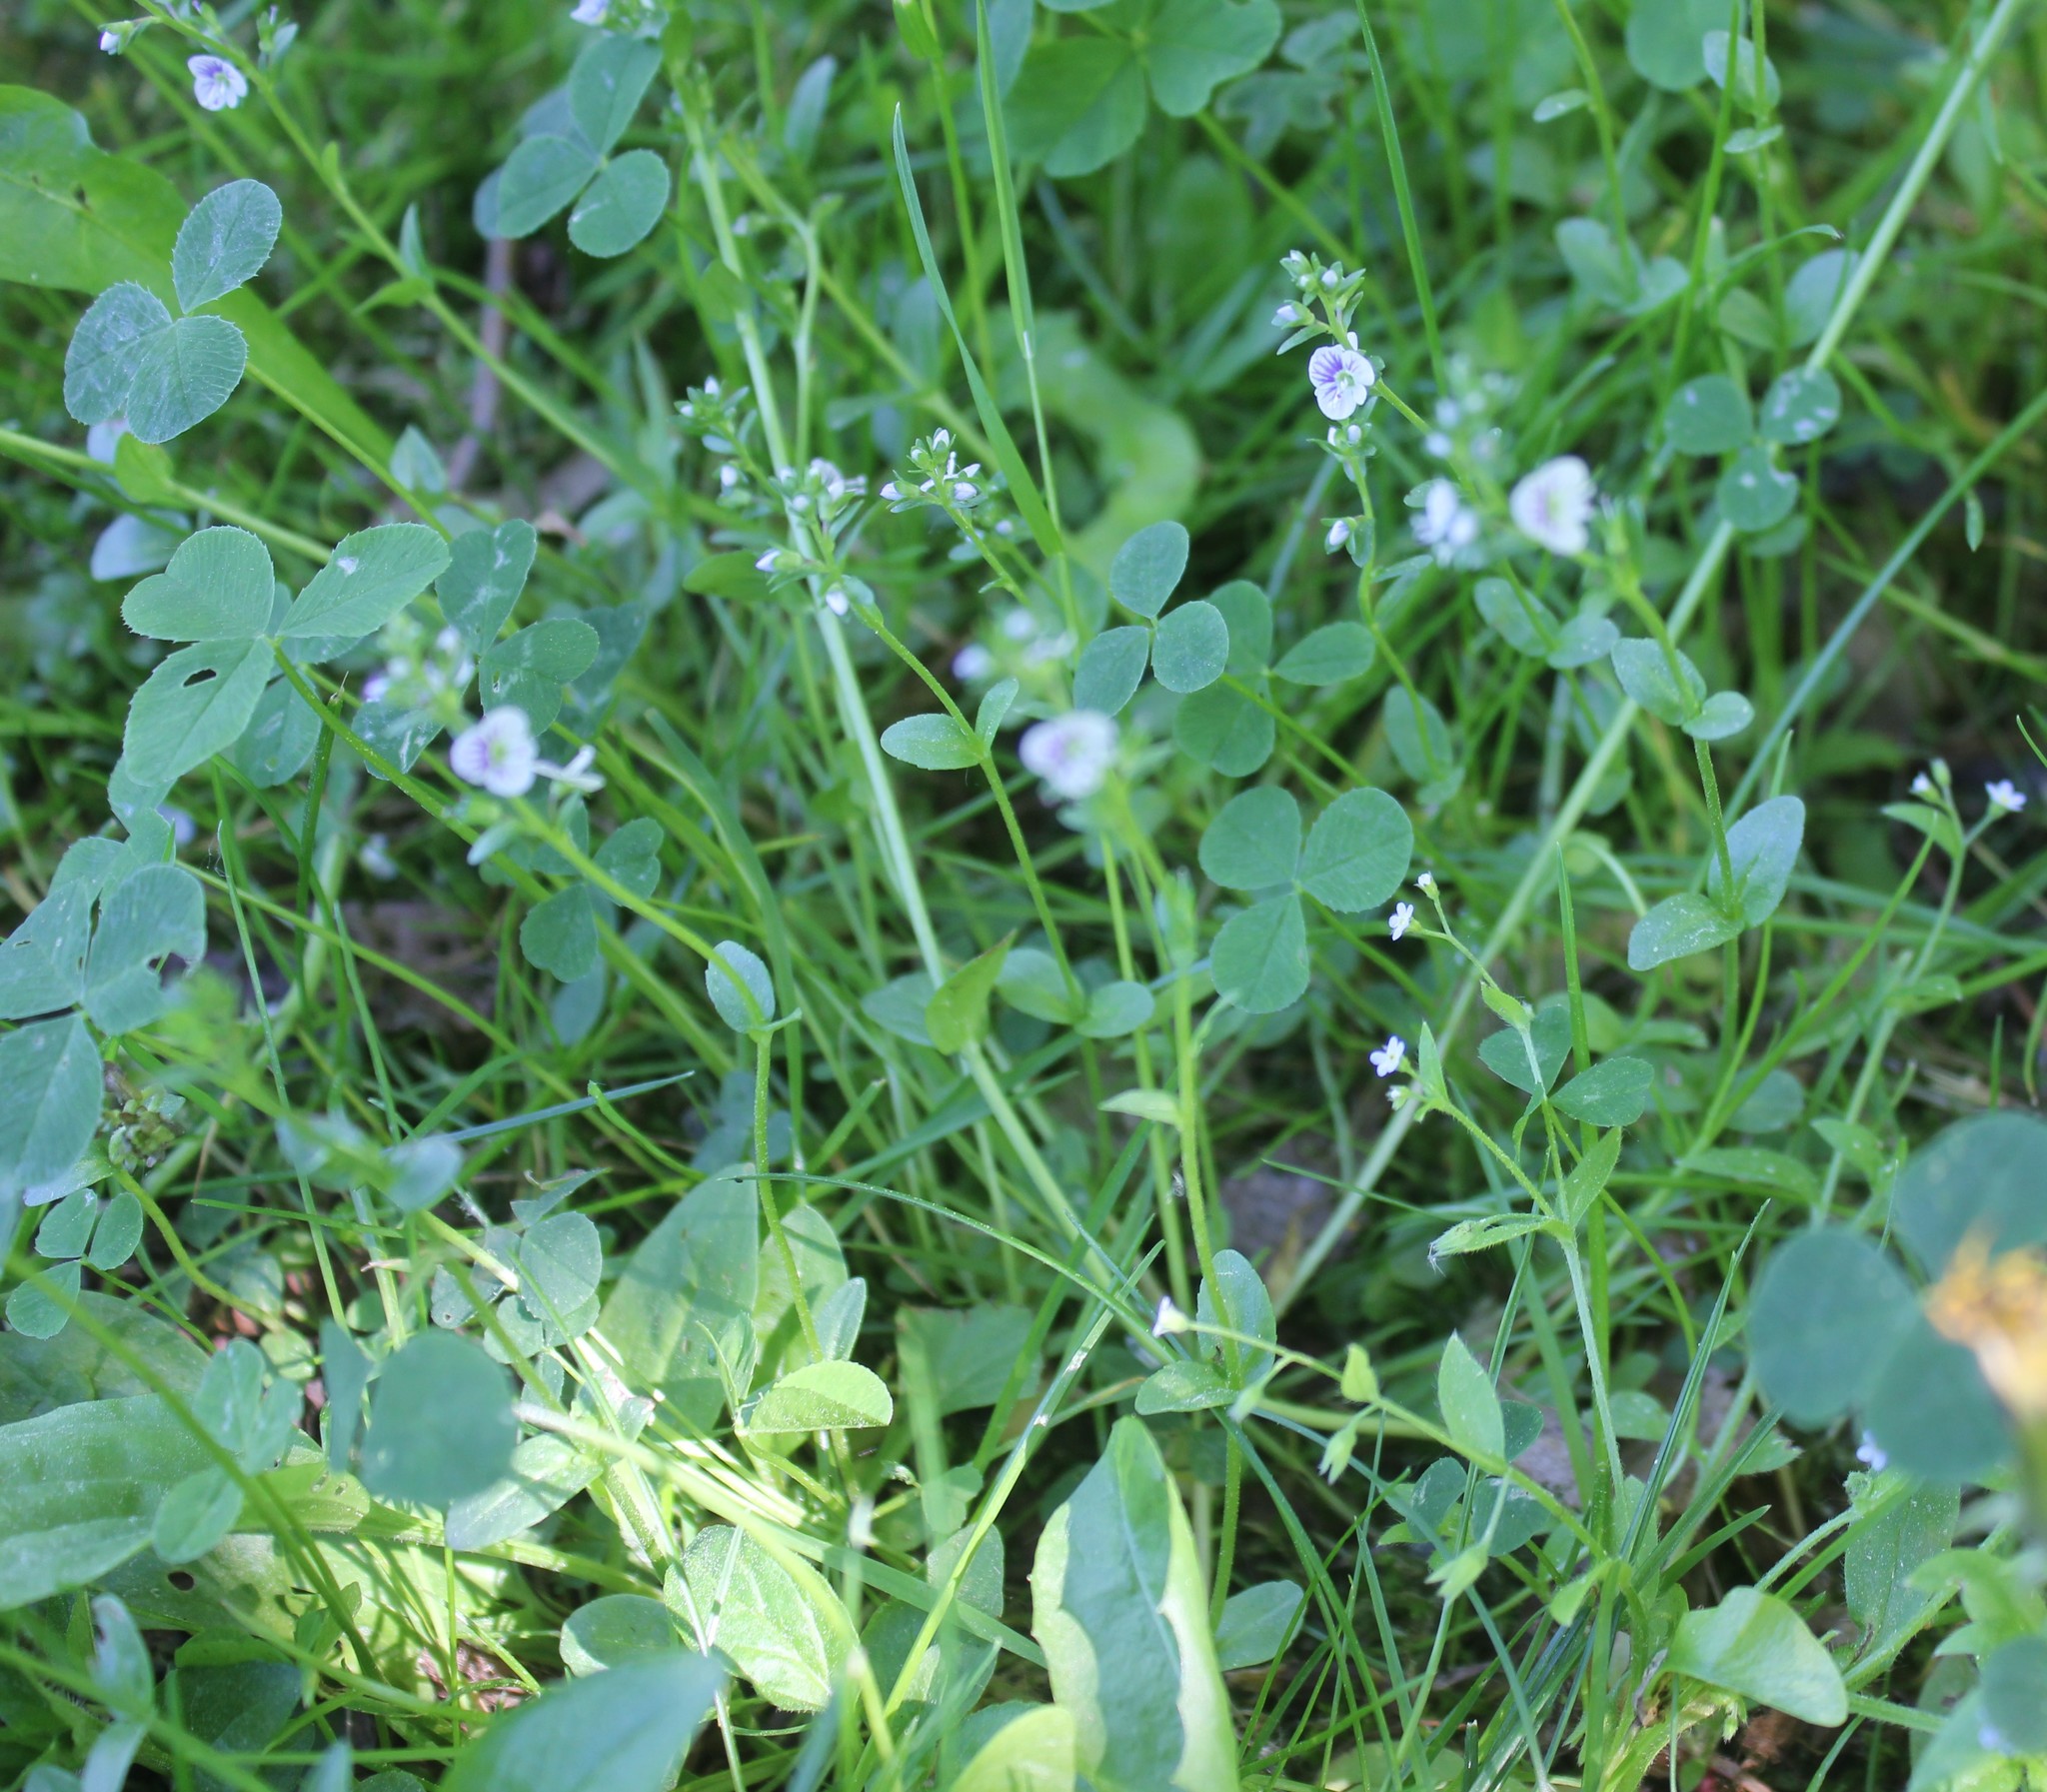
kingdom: Plantae
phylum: Tracheophyta
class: Magnoliopsida
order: Lamiales
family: Plantaginaceae
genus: Veronica
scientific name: Veronica serpyllifolia
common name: Thyme-leaved speedwell
